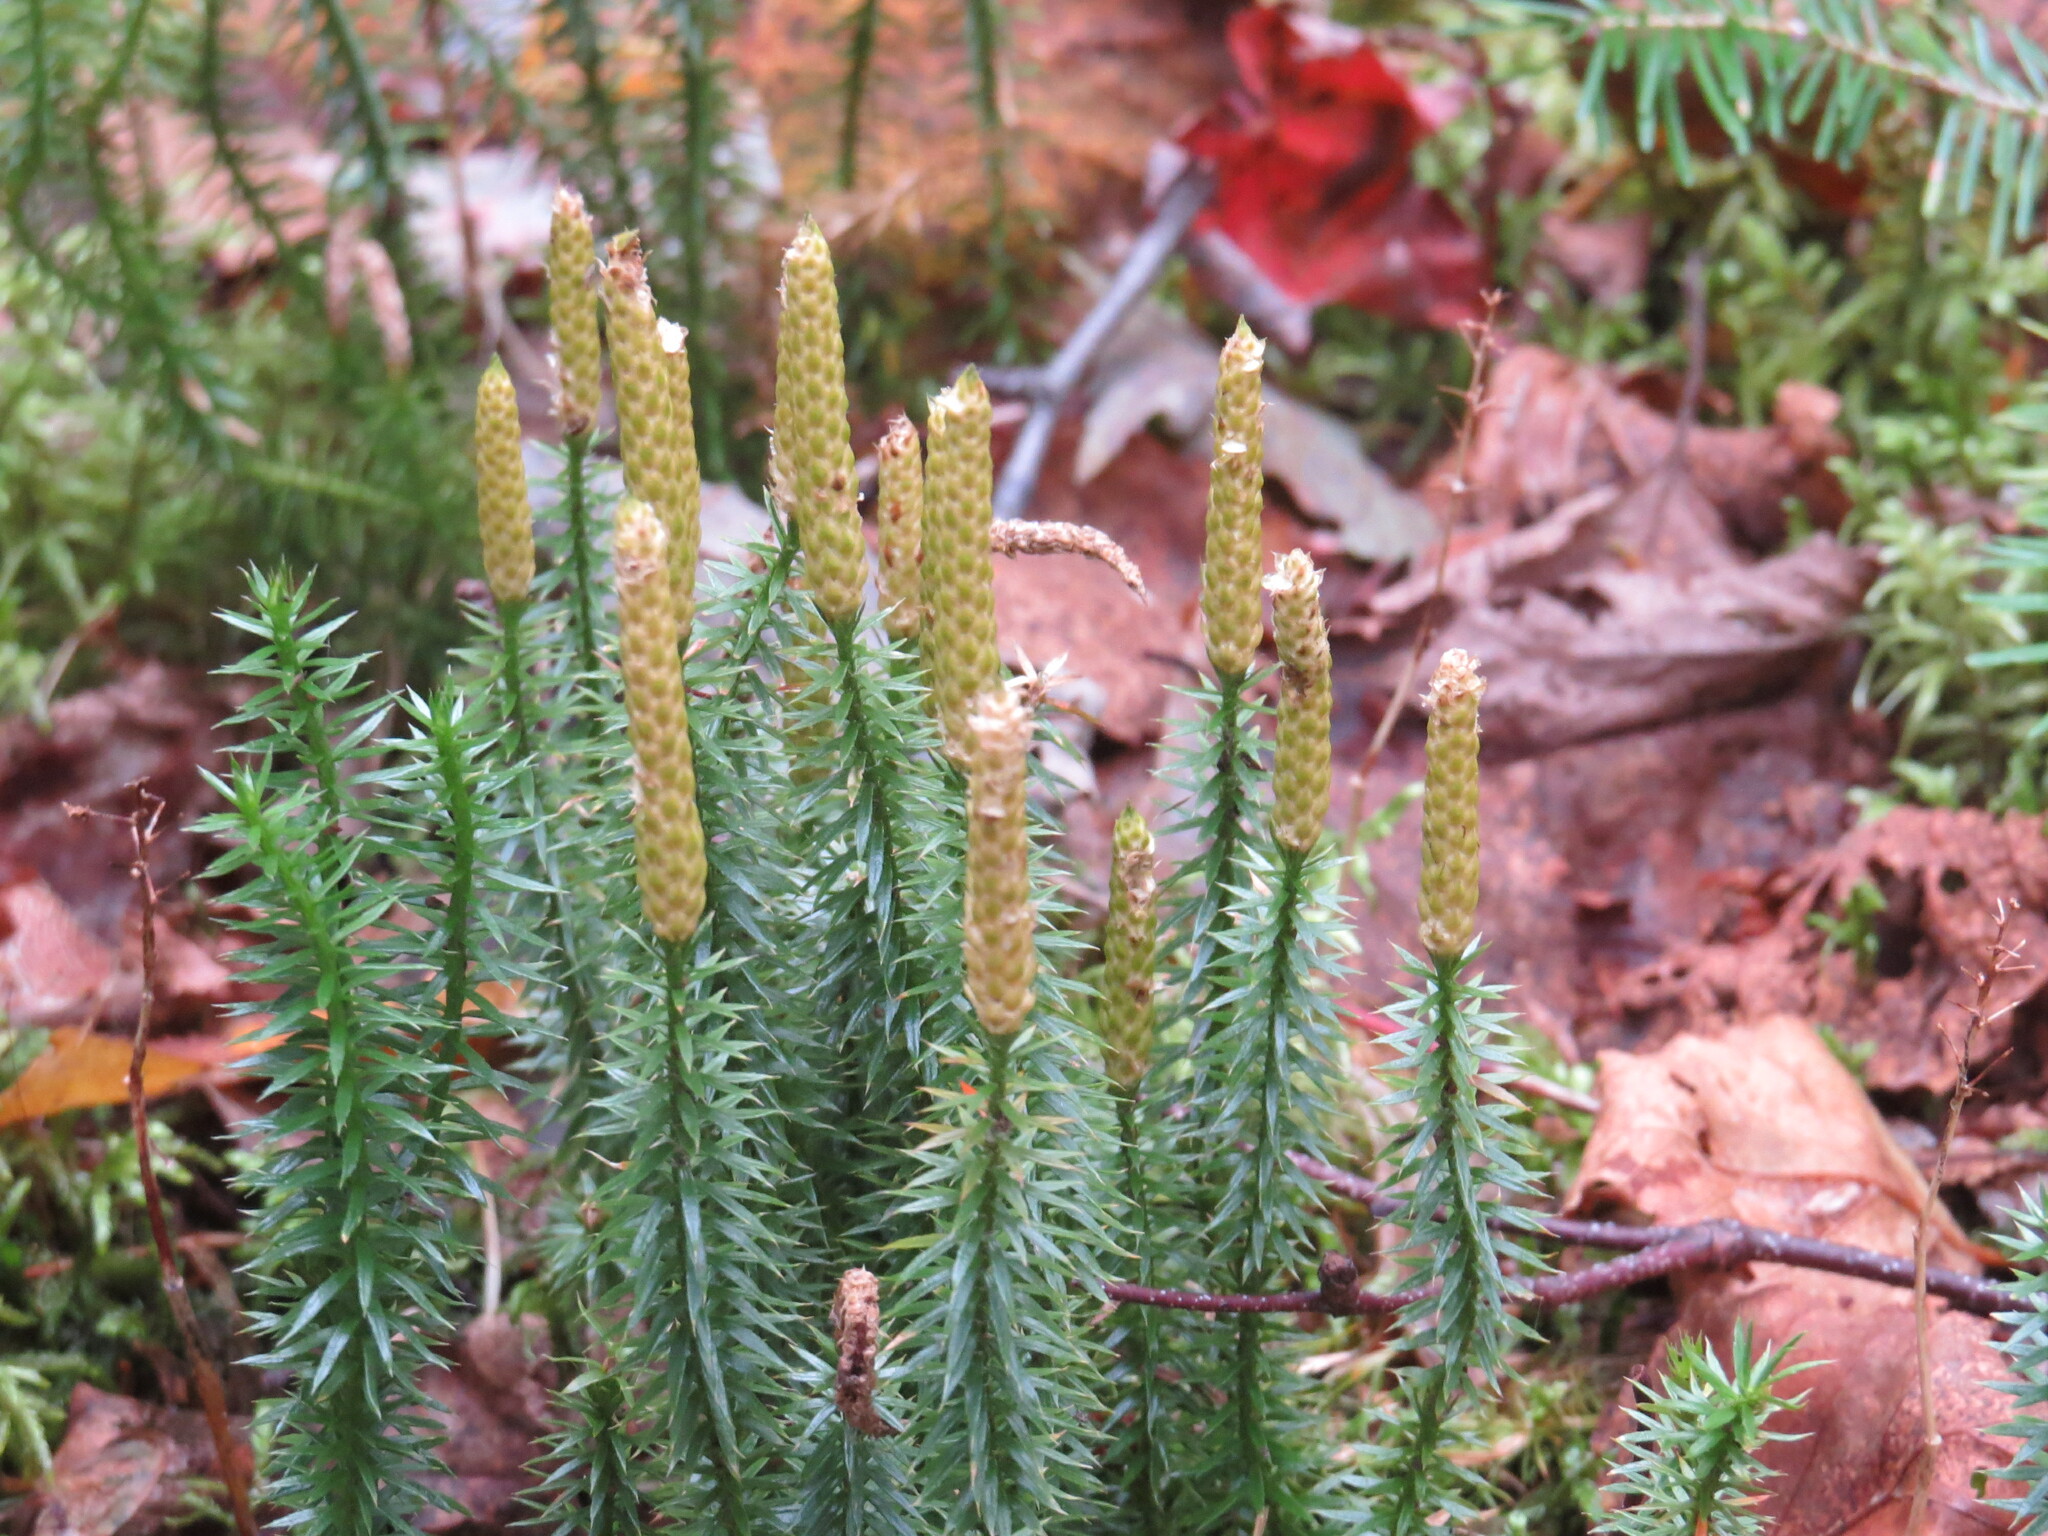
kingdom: Plantae
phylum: Tracheophyta
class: Lycopodiopsida
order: Lycopodiales
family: Lycopodiaceae
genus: Spinulum
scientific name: Spinulum annotinum
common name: Interrupted club-moss
